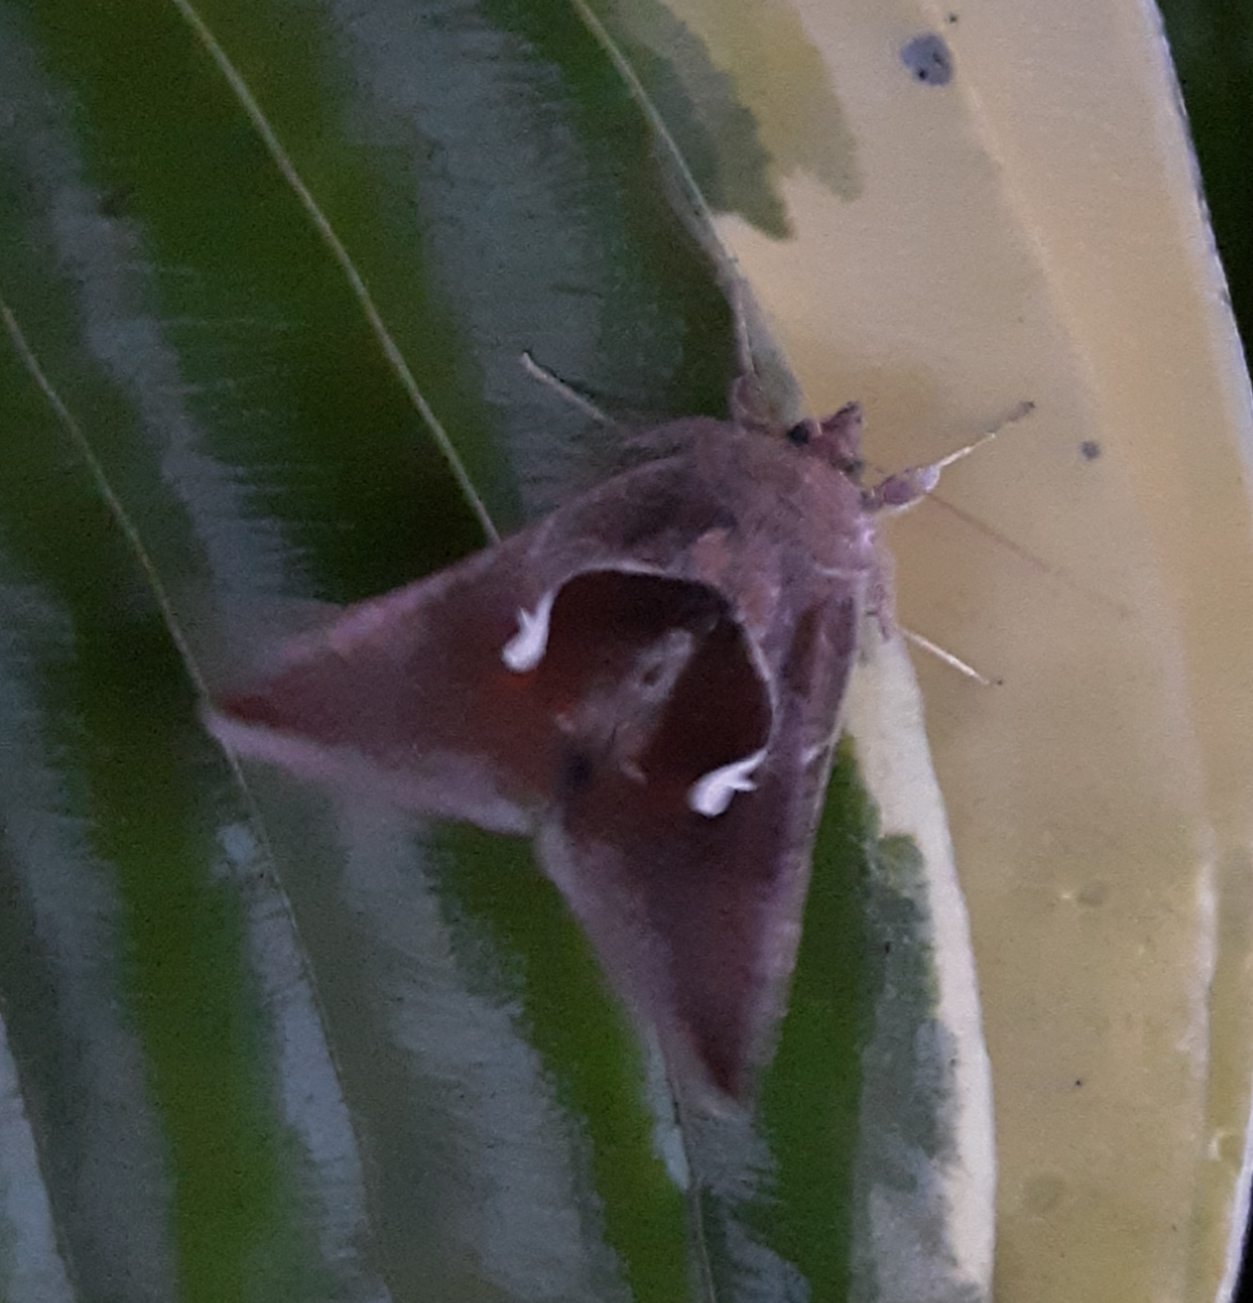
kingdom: Animalia
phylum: Arthropoda
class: Insecta
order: Lepidoptera
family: Noctuidae
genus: Anagrapha
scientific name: Anagrapha falcifera
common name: Celery looper
